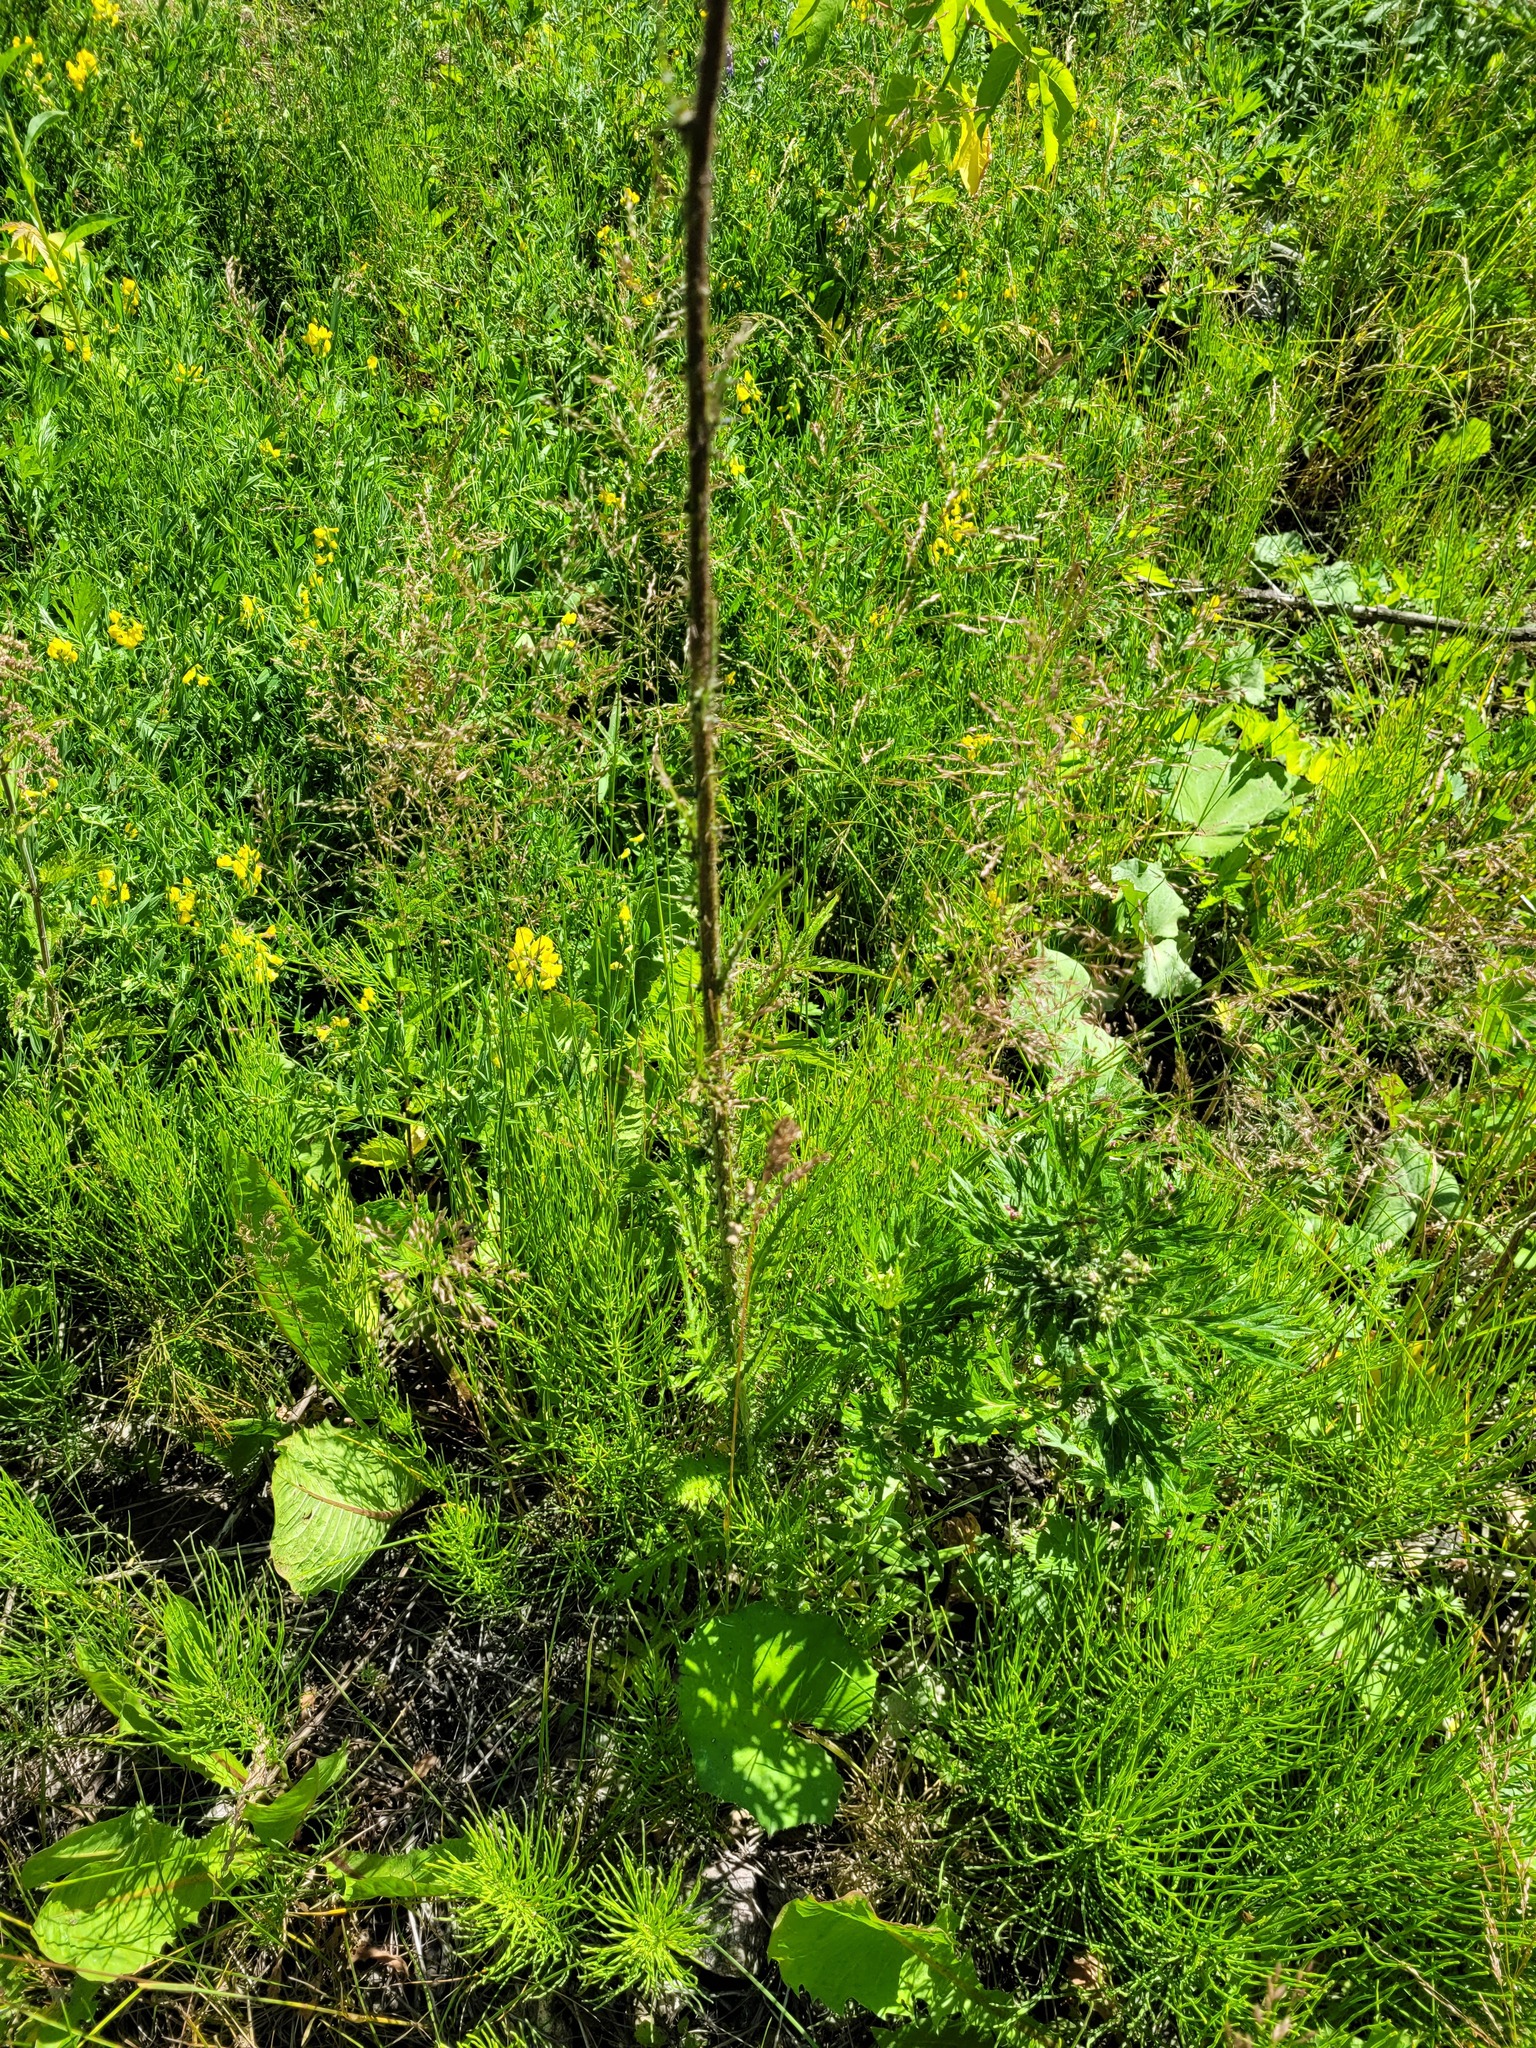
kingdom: Plantae
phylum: Tracheophyta
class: Magnoliopsida
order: Asterales
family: Asteraceae
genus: Cirsium
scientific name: Cirsium palustre
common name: Marsh thistle
